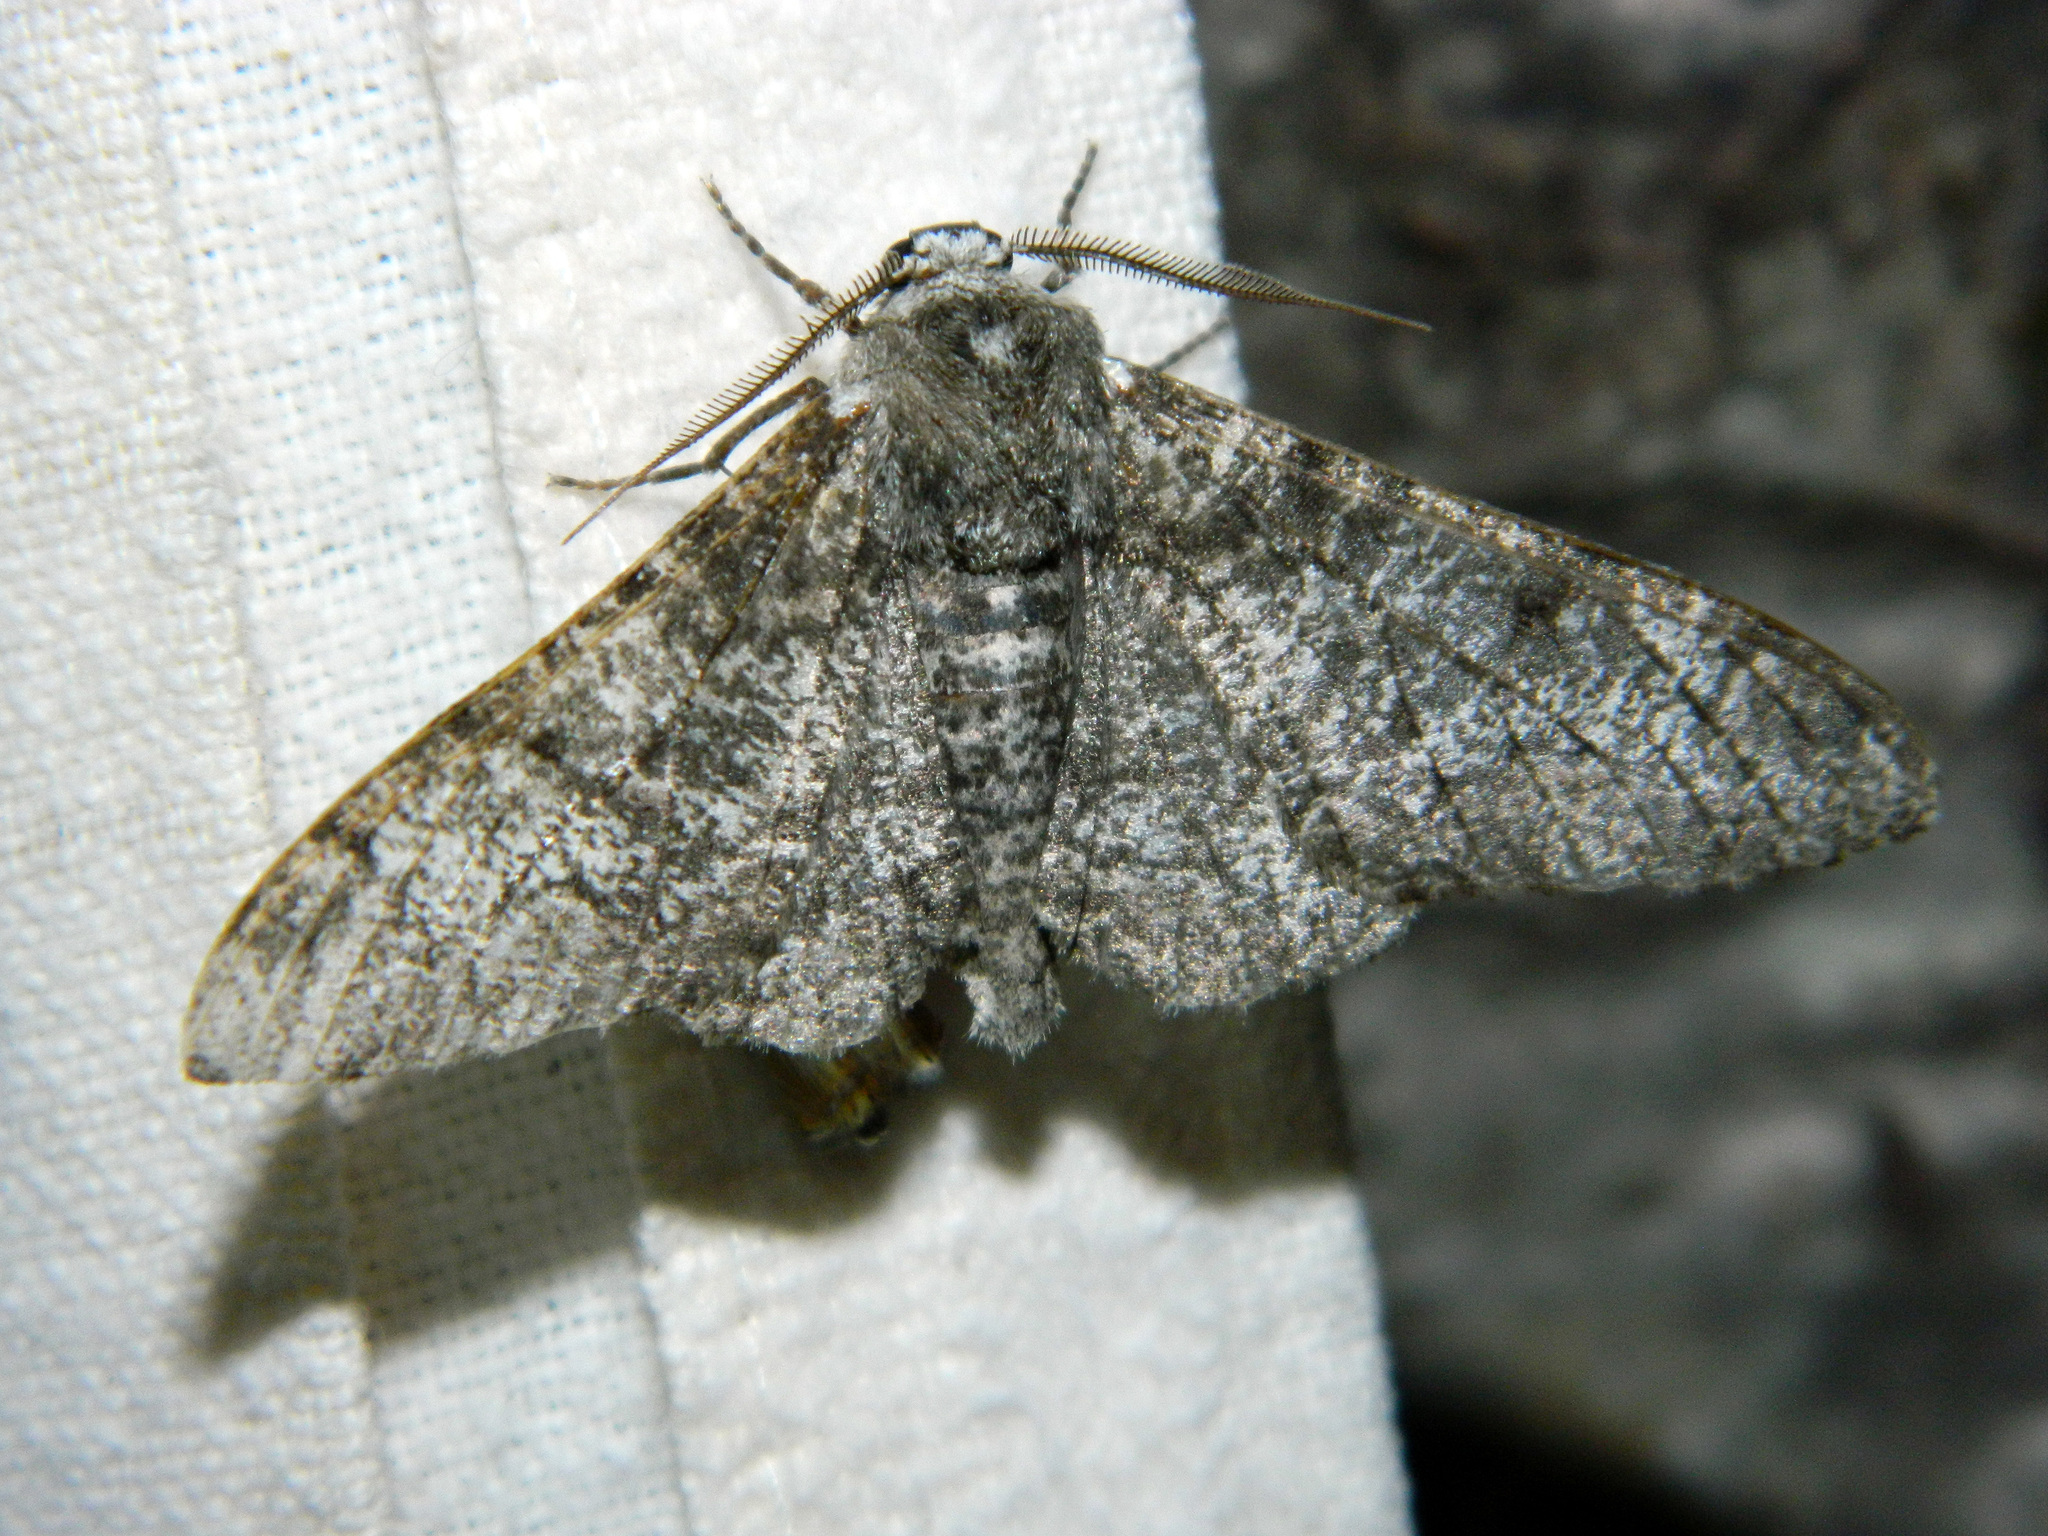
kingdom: Animalia
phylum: Arthropoda
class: Insecta
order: Lepidoptera
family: Geometridae
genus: Biston
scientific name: Biston betularia
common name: Peppered moth
